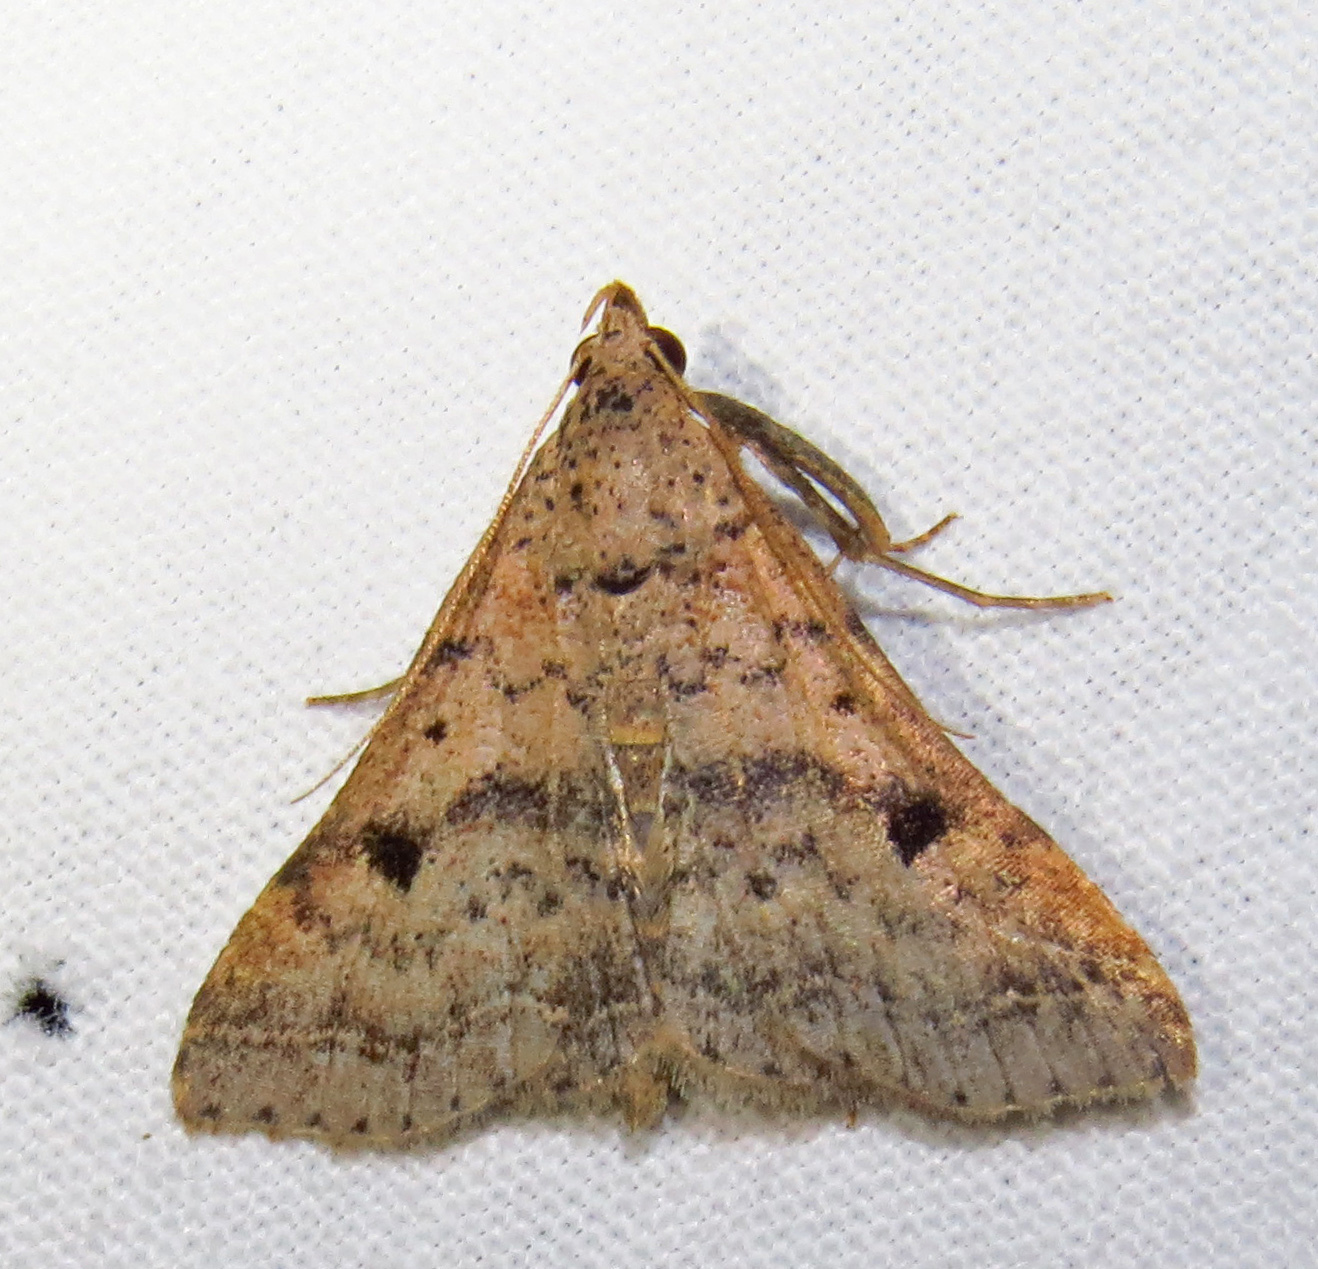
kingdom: Animalia
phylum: Arthropoda
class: Insecta
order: Lepidoptera
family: Erebidae
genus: Bleptina
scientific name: Bleptina caradrinalis
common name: Bent-winged owlet
